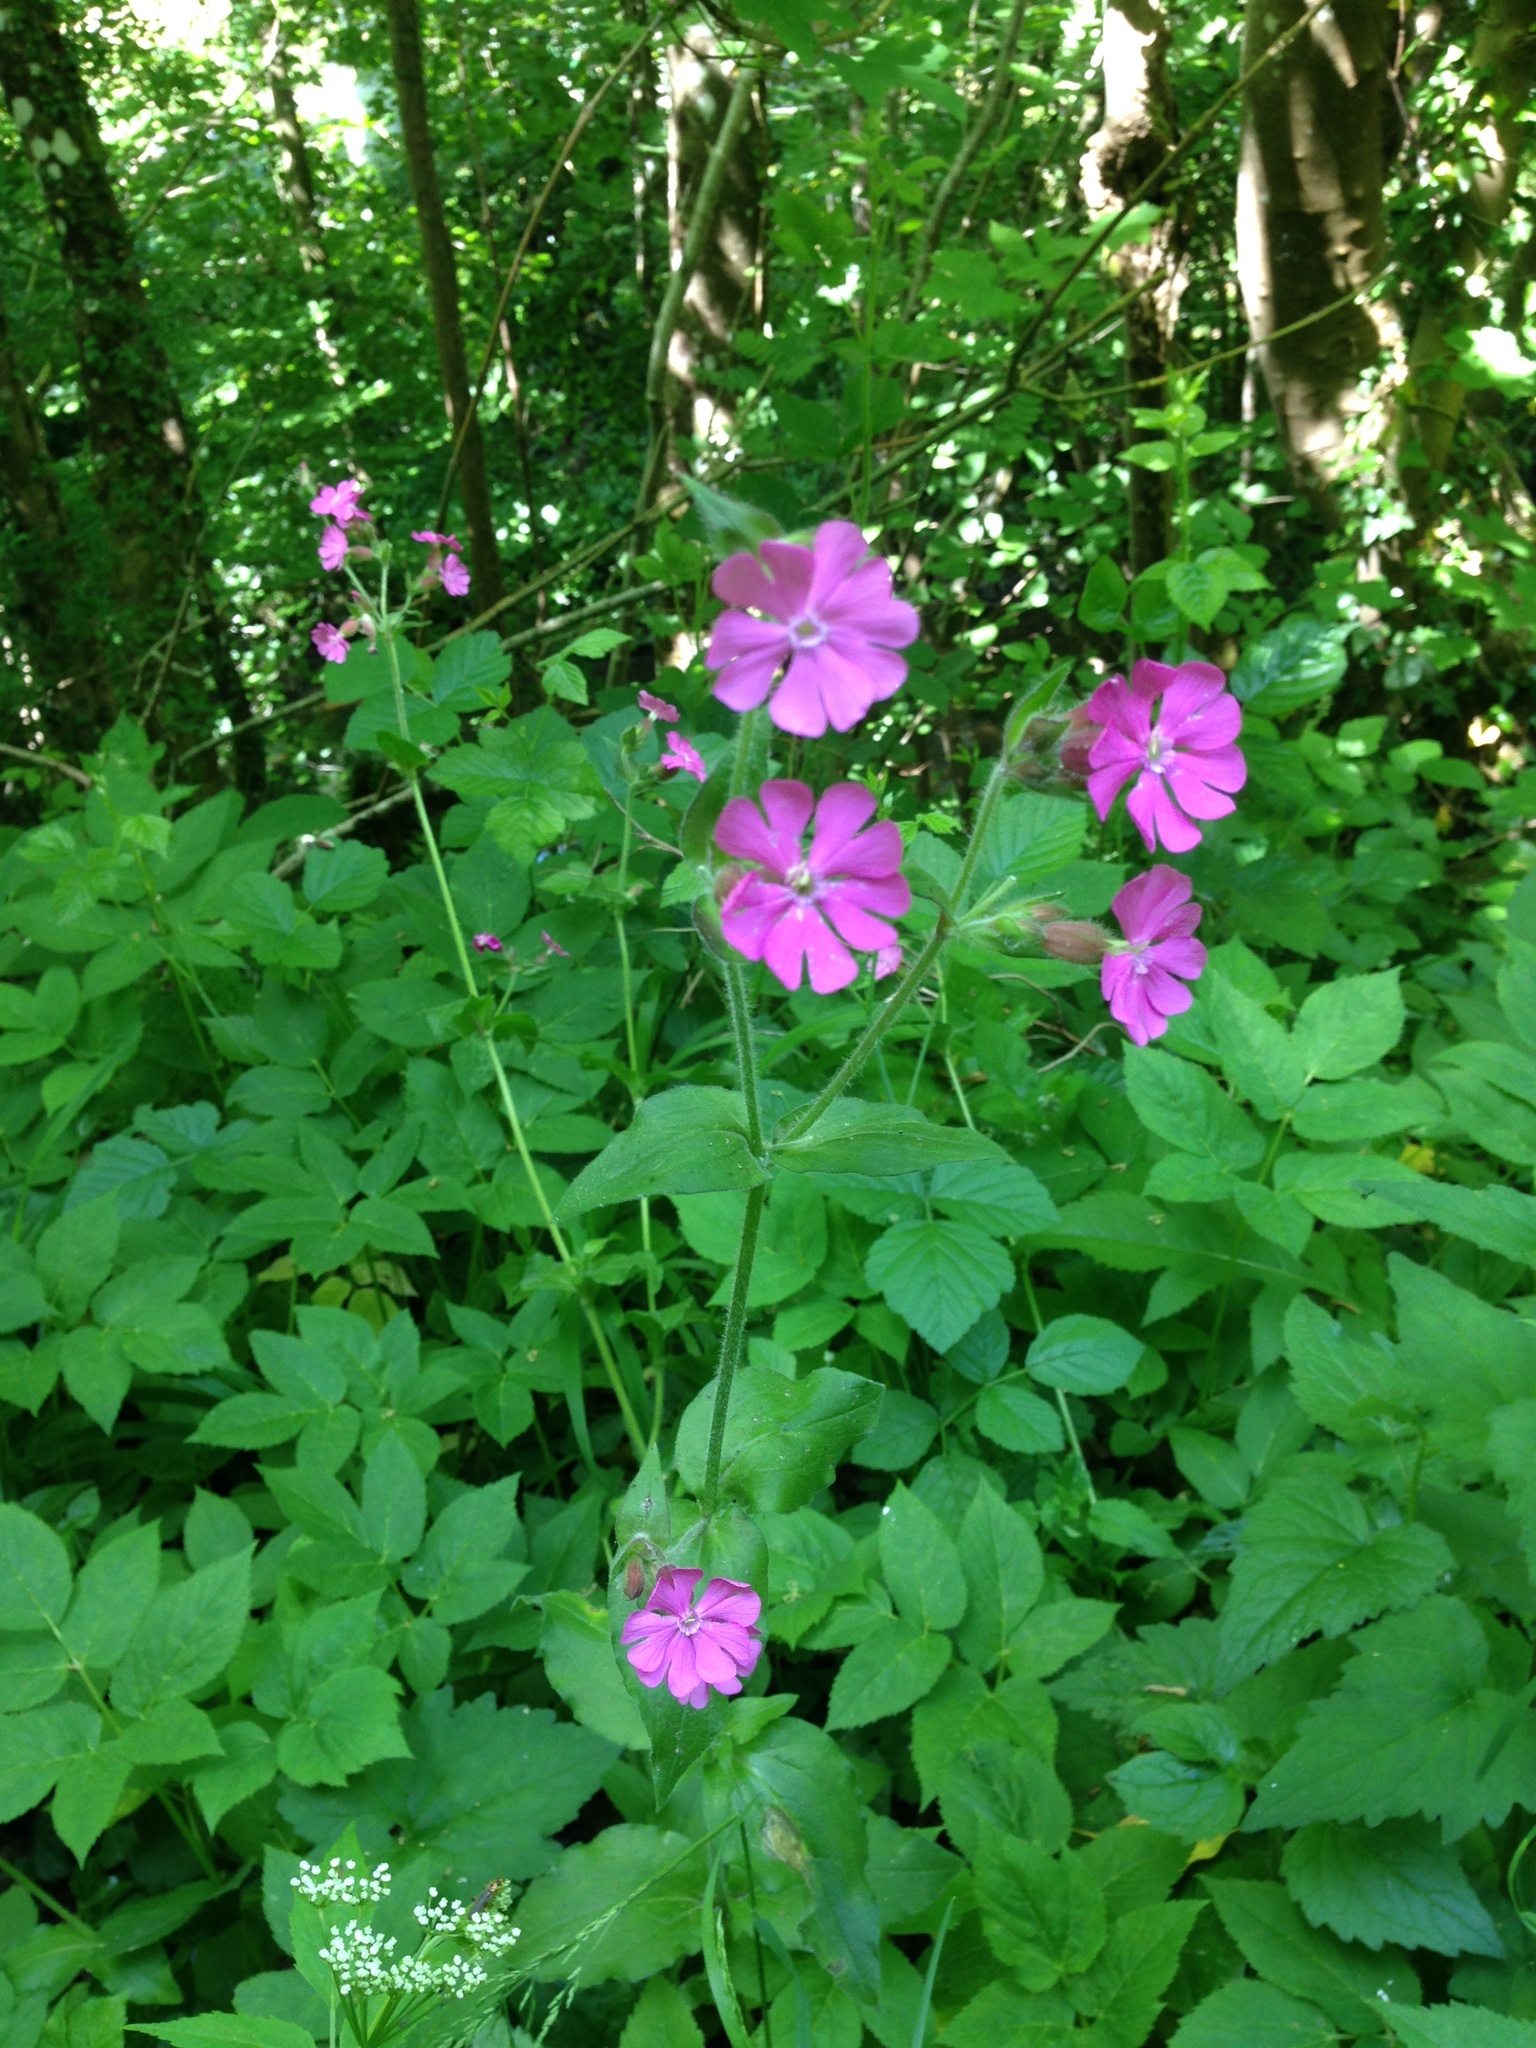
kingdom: Plantae
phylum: Tracheophyta
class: Magnoliopsida
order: Caryophyllales
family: Caryophyllaceae
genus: Silene
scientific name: Silene dioica
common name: Red campion
